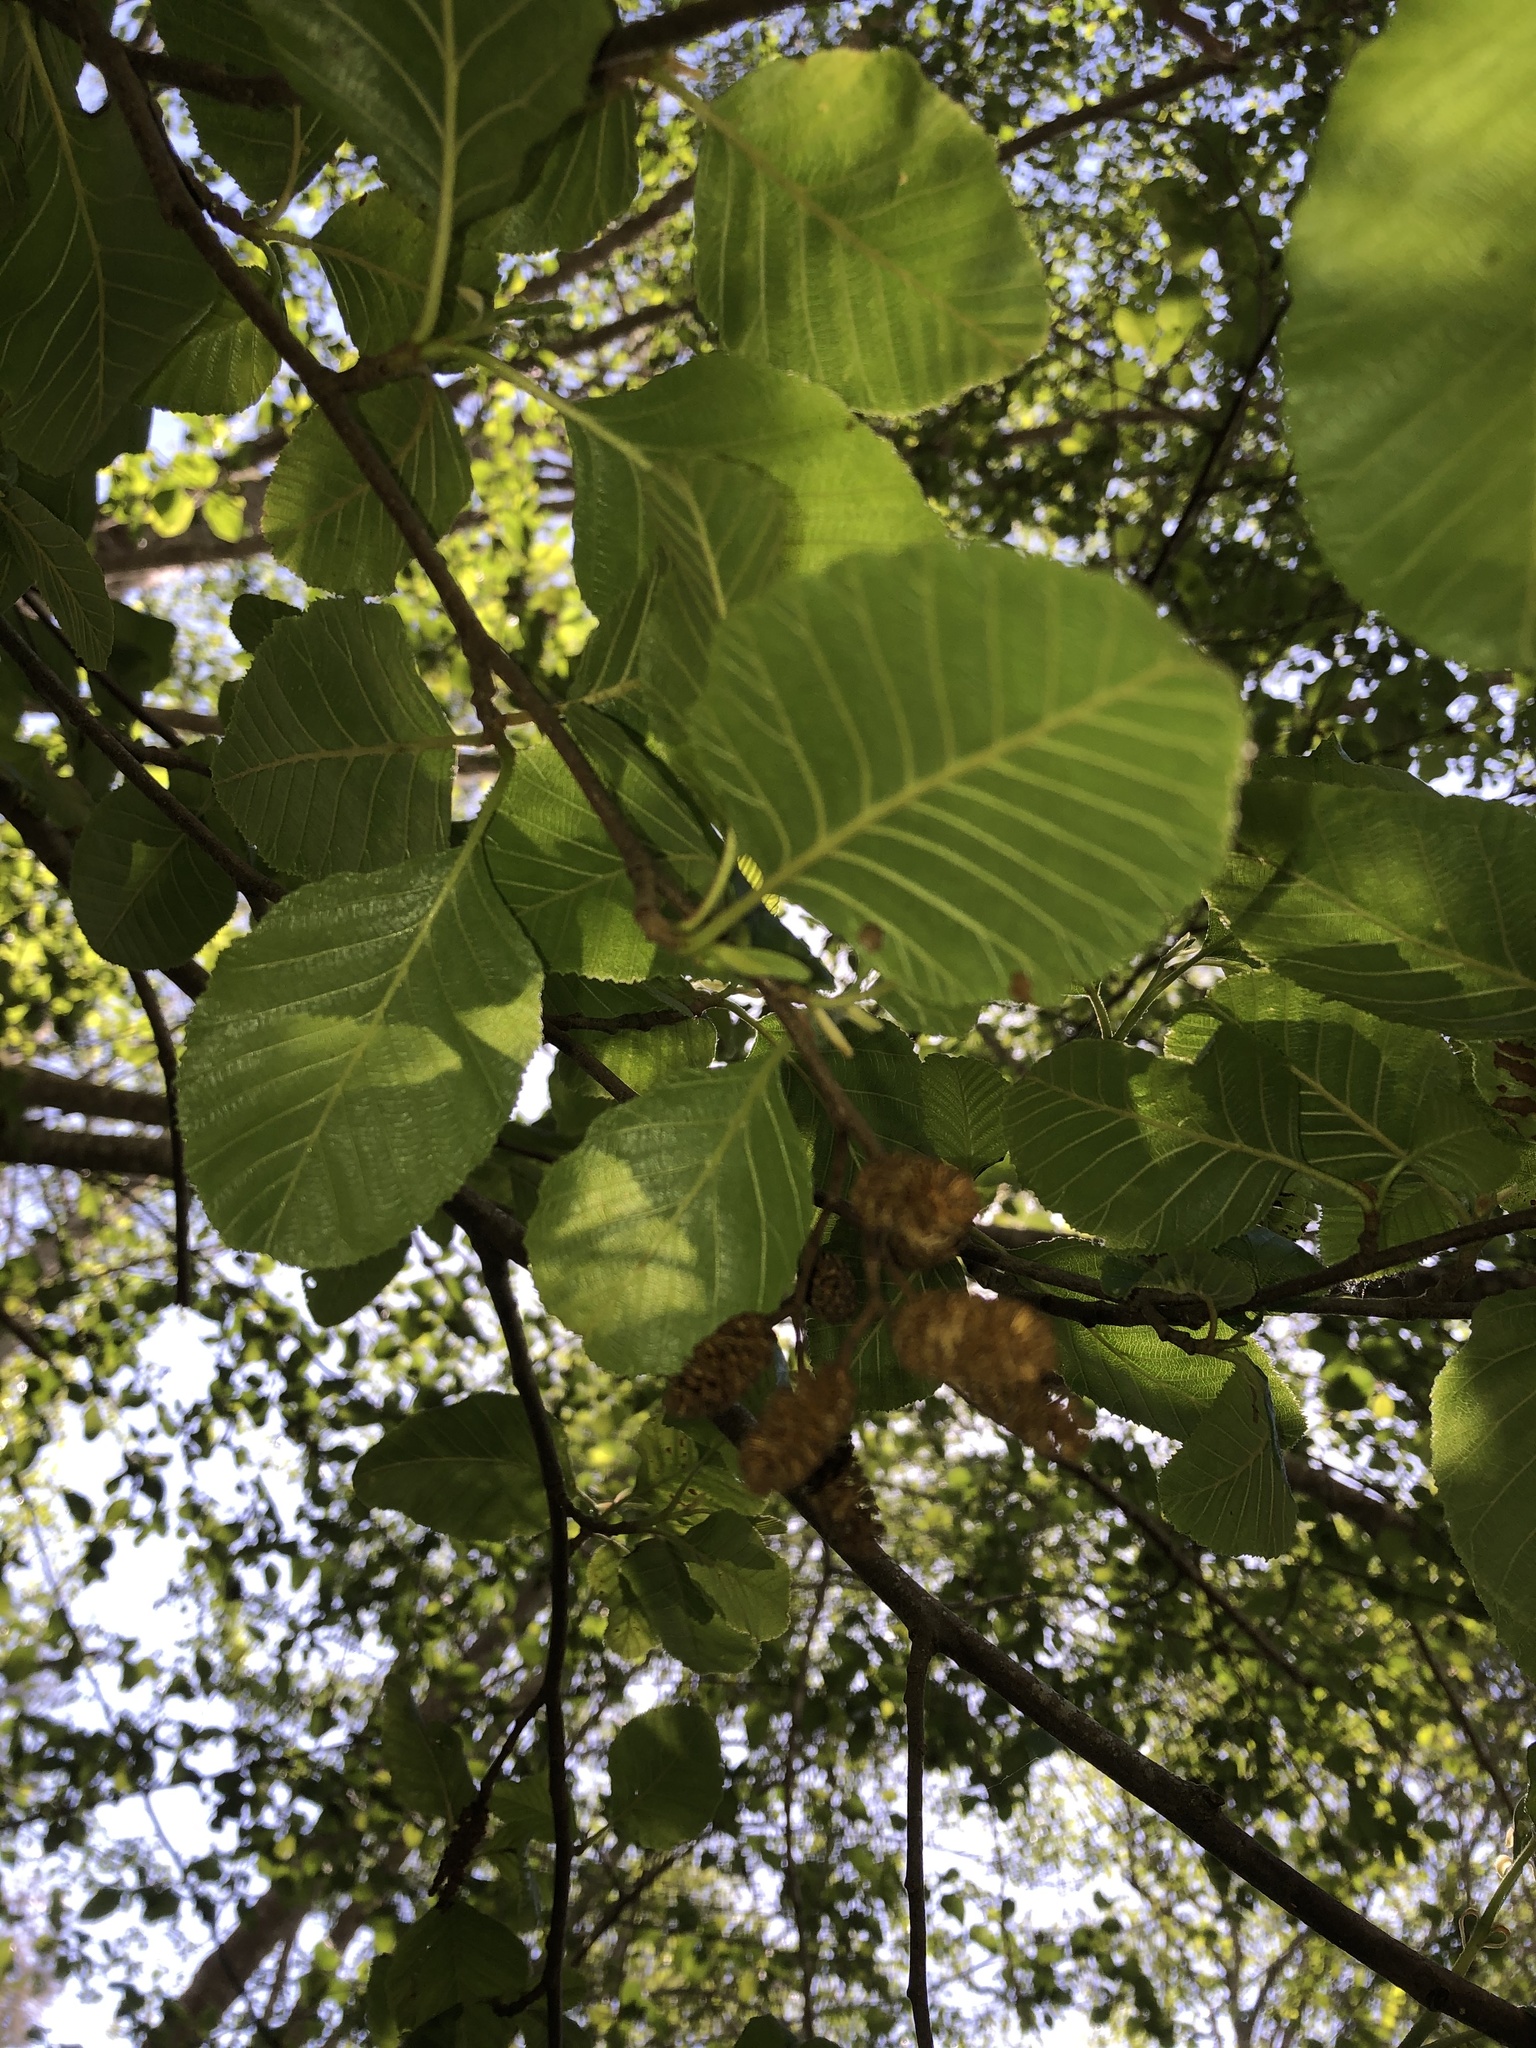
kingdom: Plantae
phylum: Tracheophyta
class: Magnoliopsida
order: Fagales
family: Betulaceae
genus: Alnus
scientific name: Alnus rhombifolia
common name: California alder
